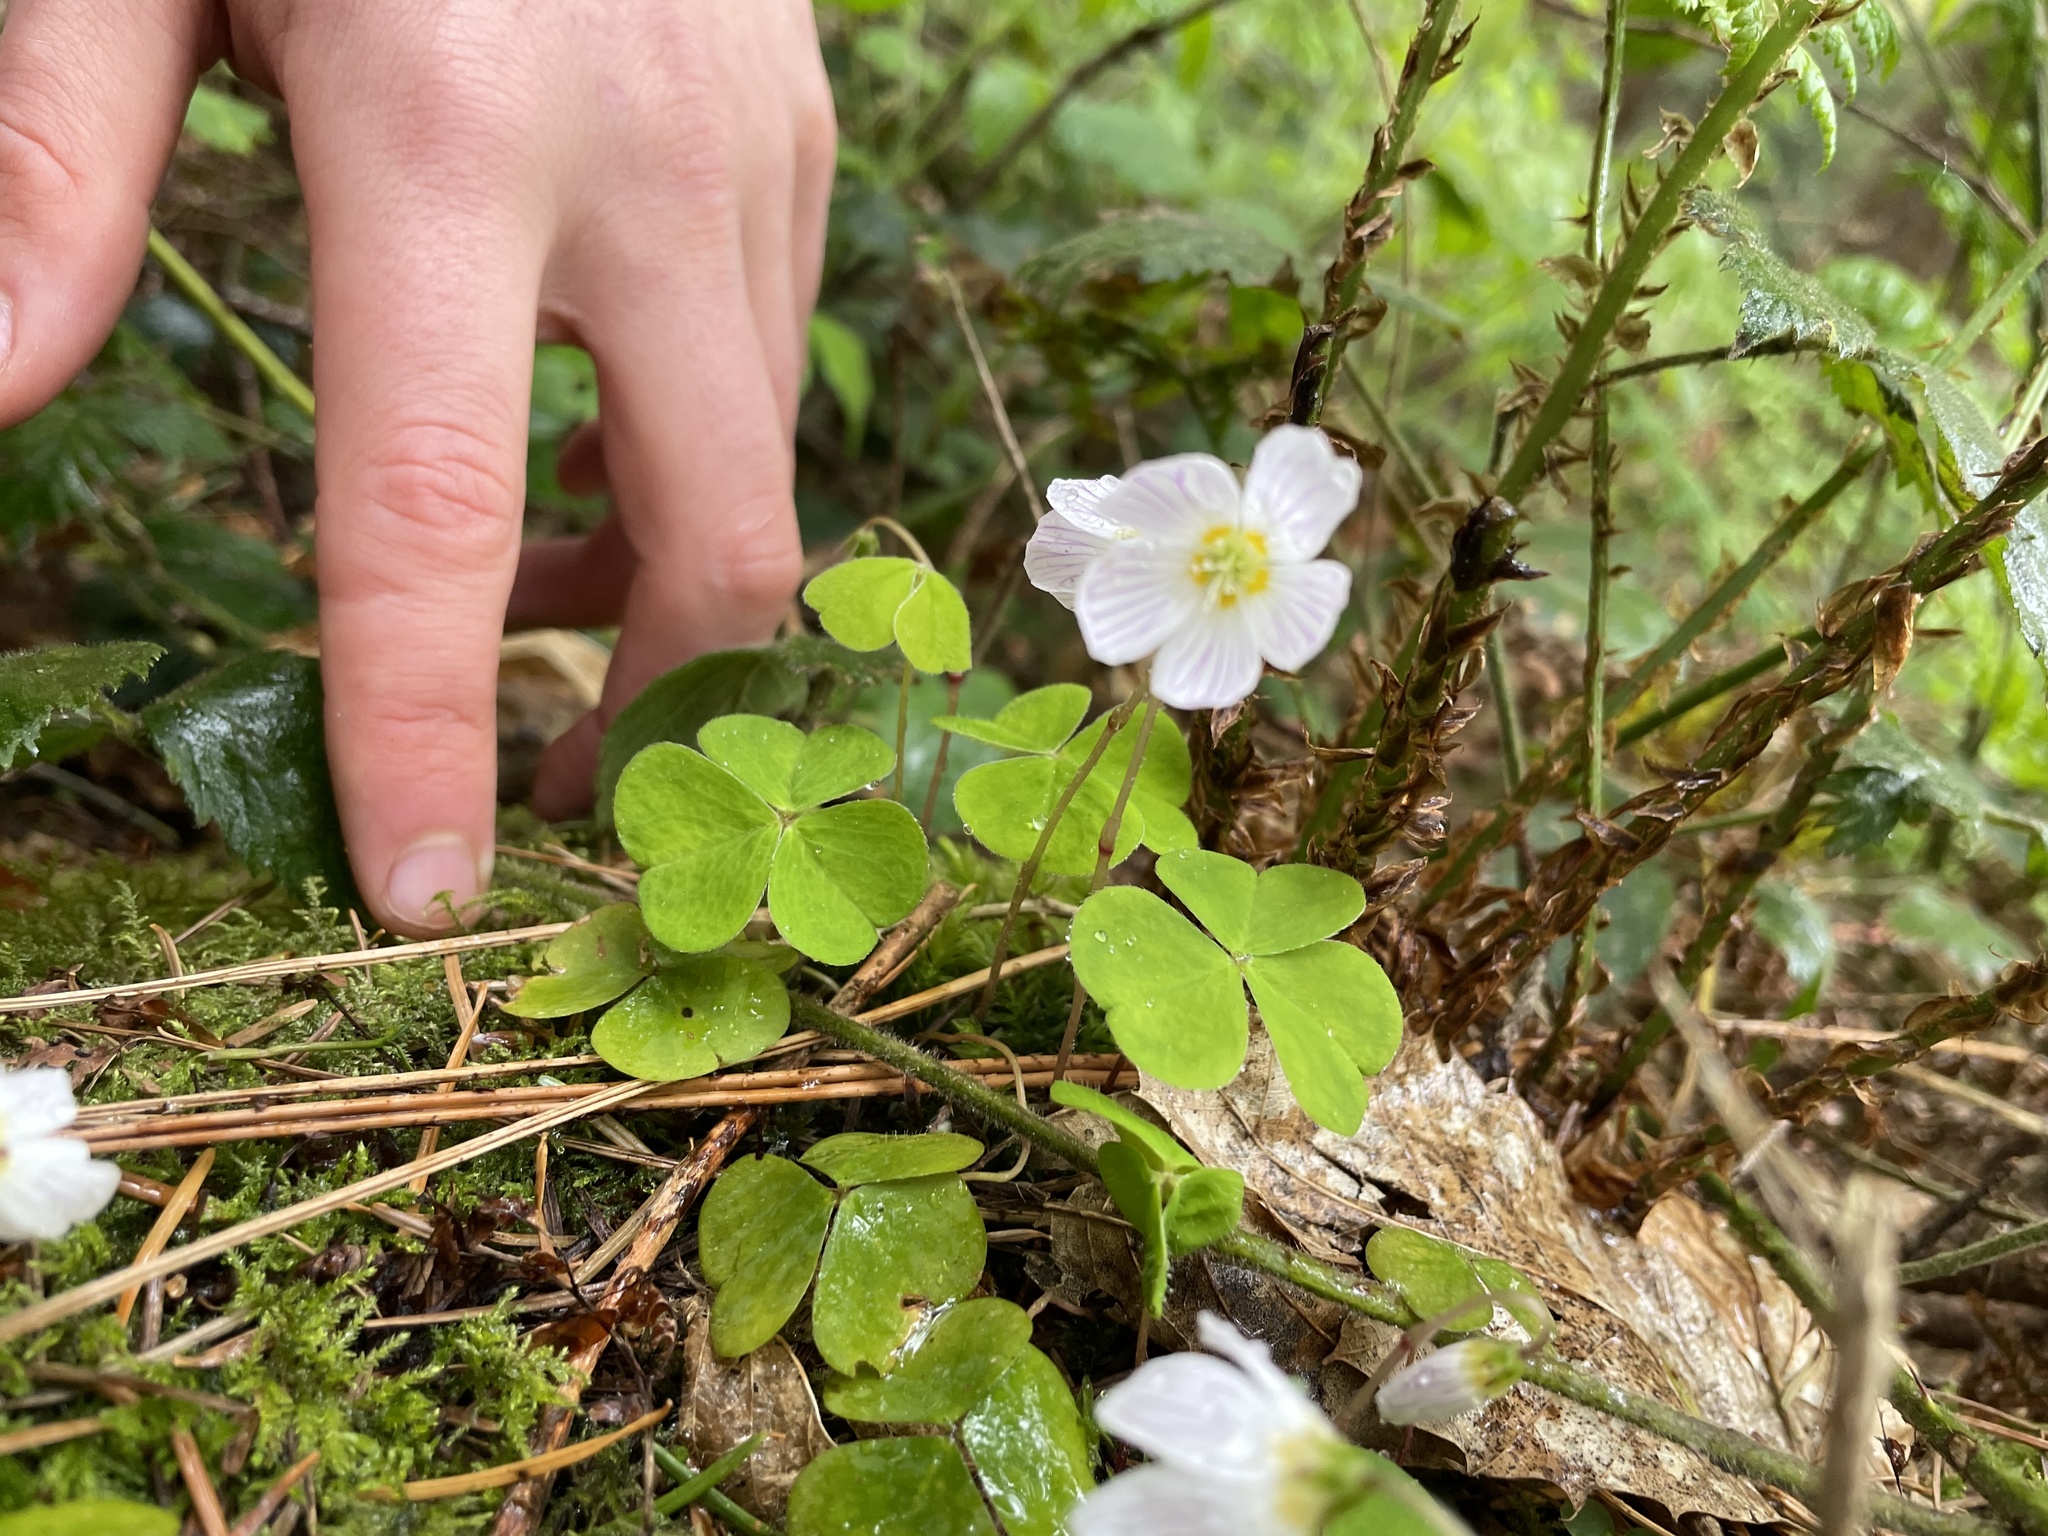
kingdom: Plantae
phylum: Tracheophyta
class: Magnoliopsida
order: Oxalidales
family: Oxalidaceae
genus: Oxalis
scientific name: Oxalis acetosella
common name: Wood-sorrel
